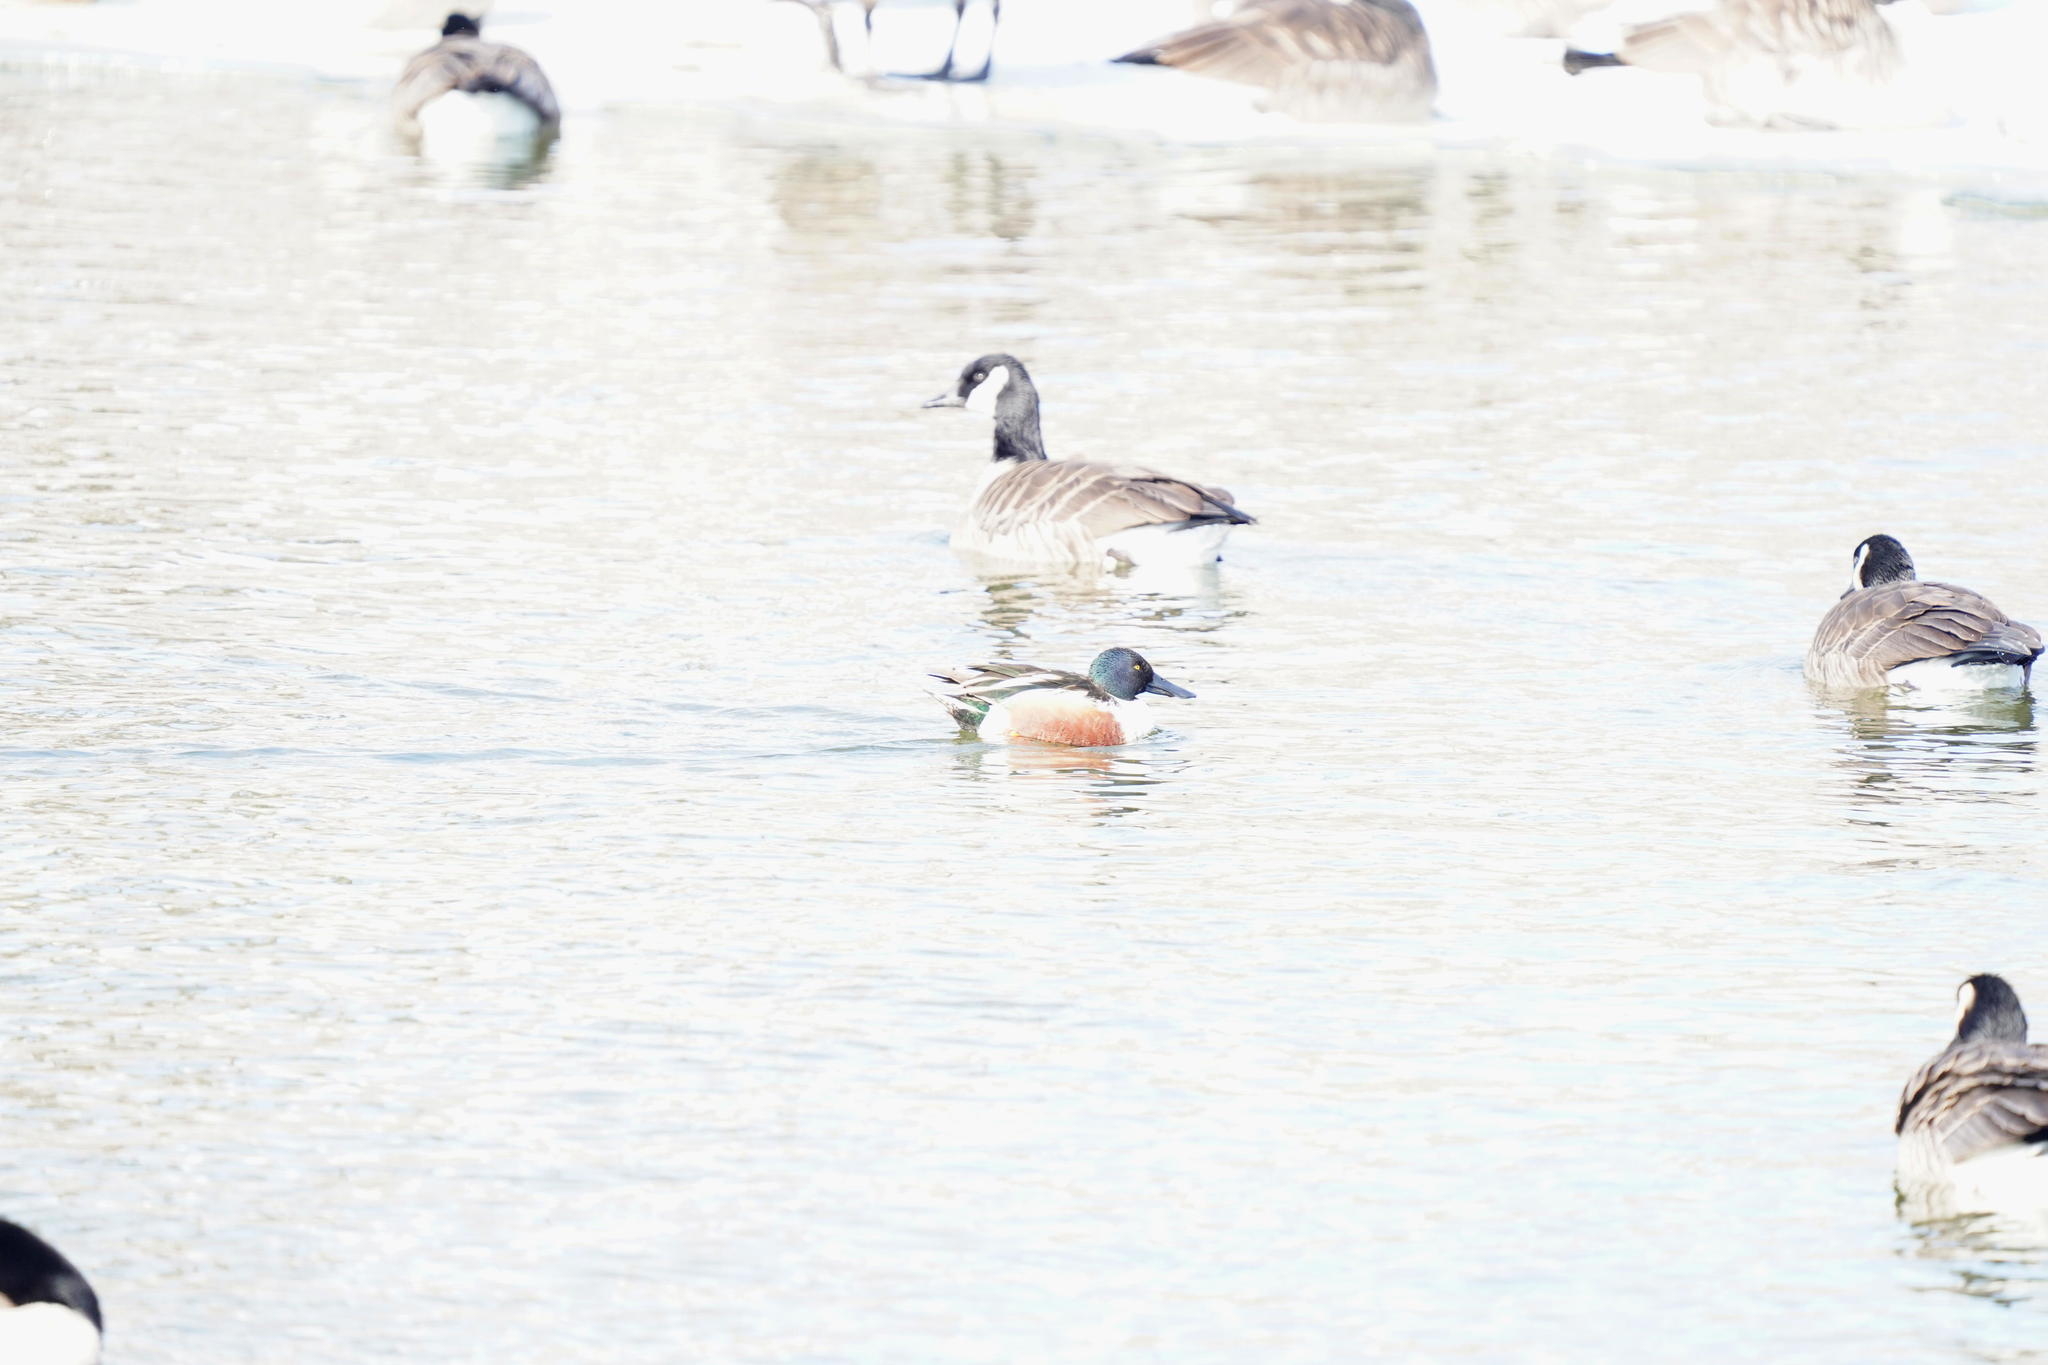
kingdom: Animalia
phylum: Chordata
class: Aves
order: Anseriformes
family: Anatidae
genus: Spatula
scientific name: Spatula clypeata
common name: Northern shoveler
